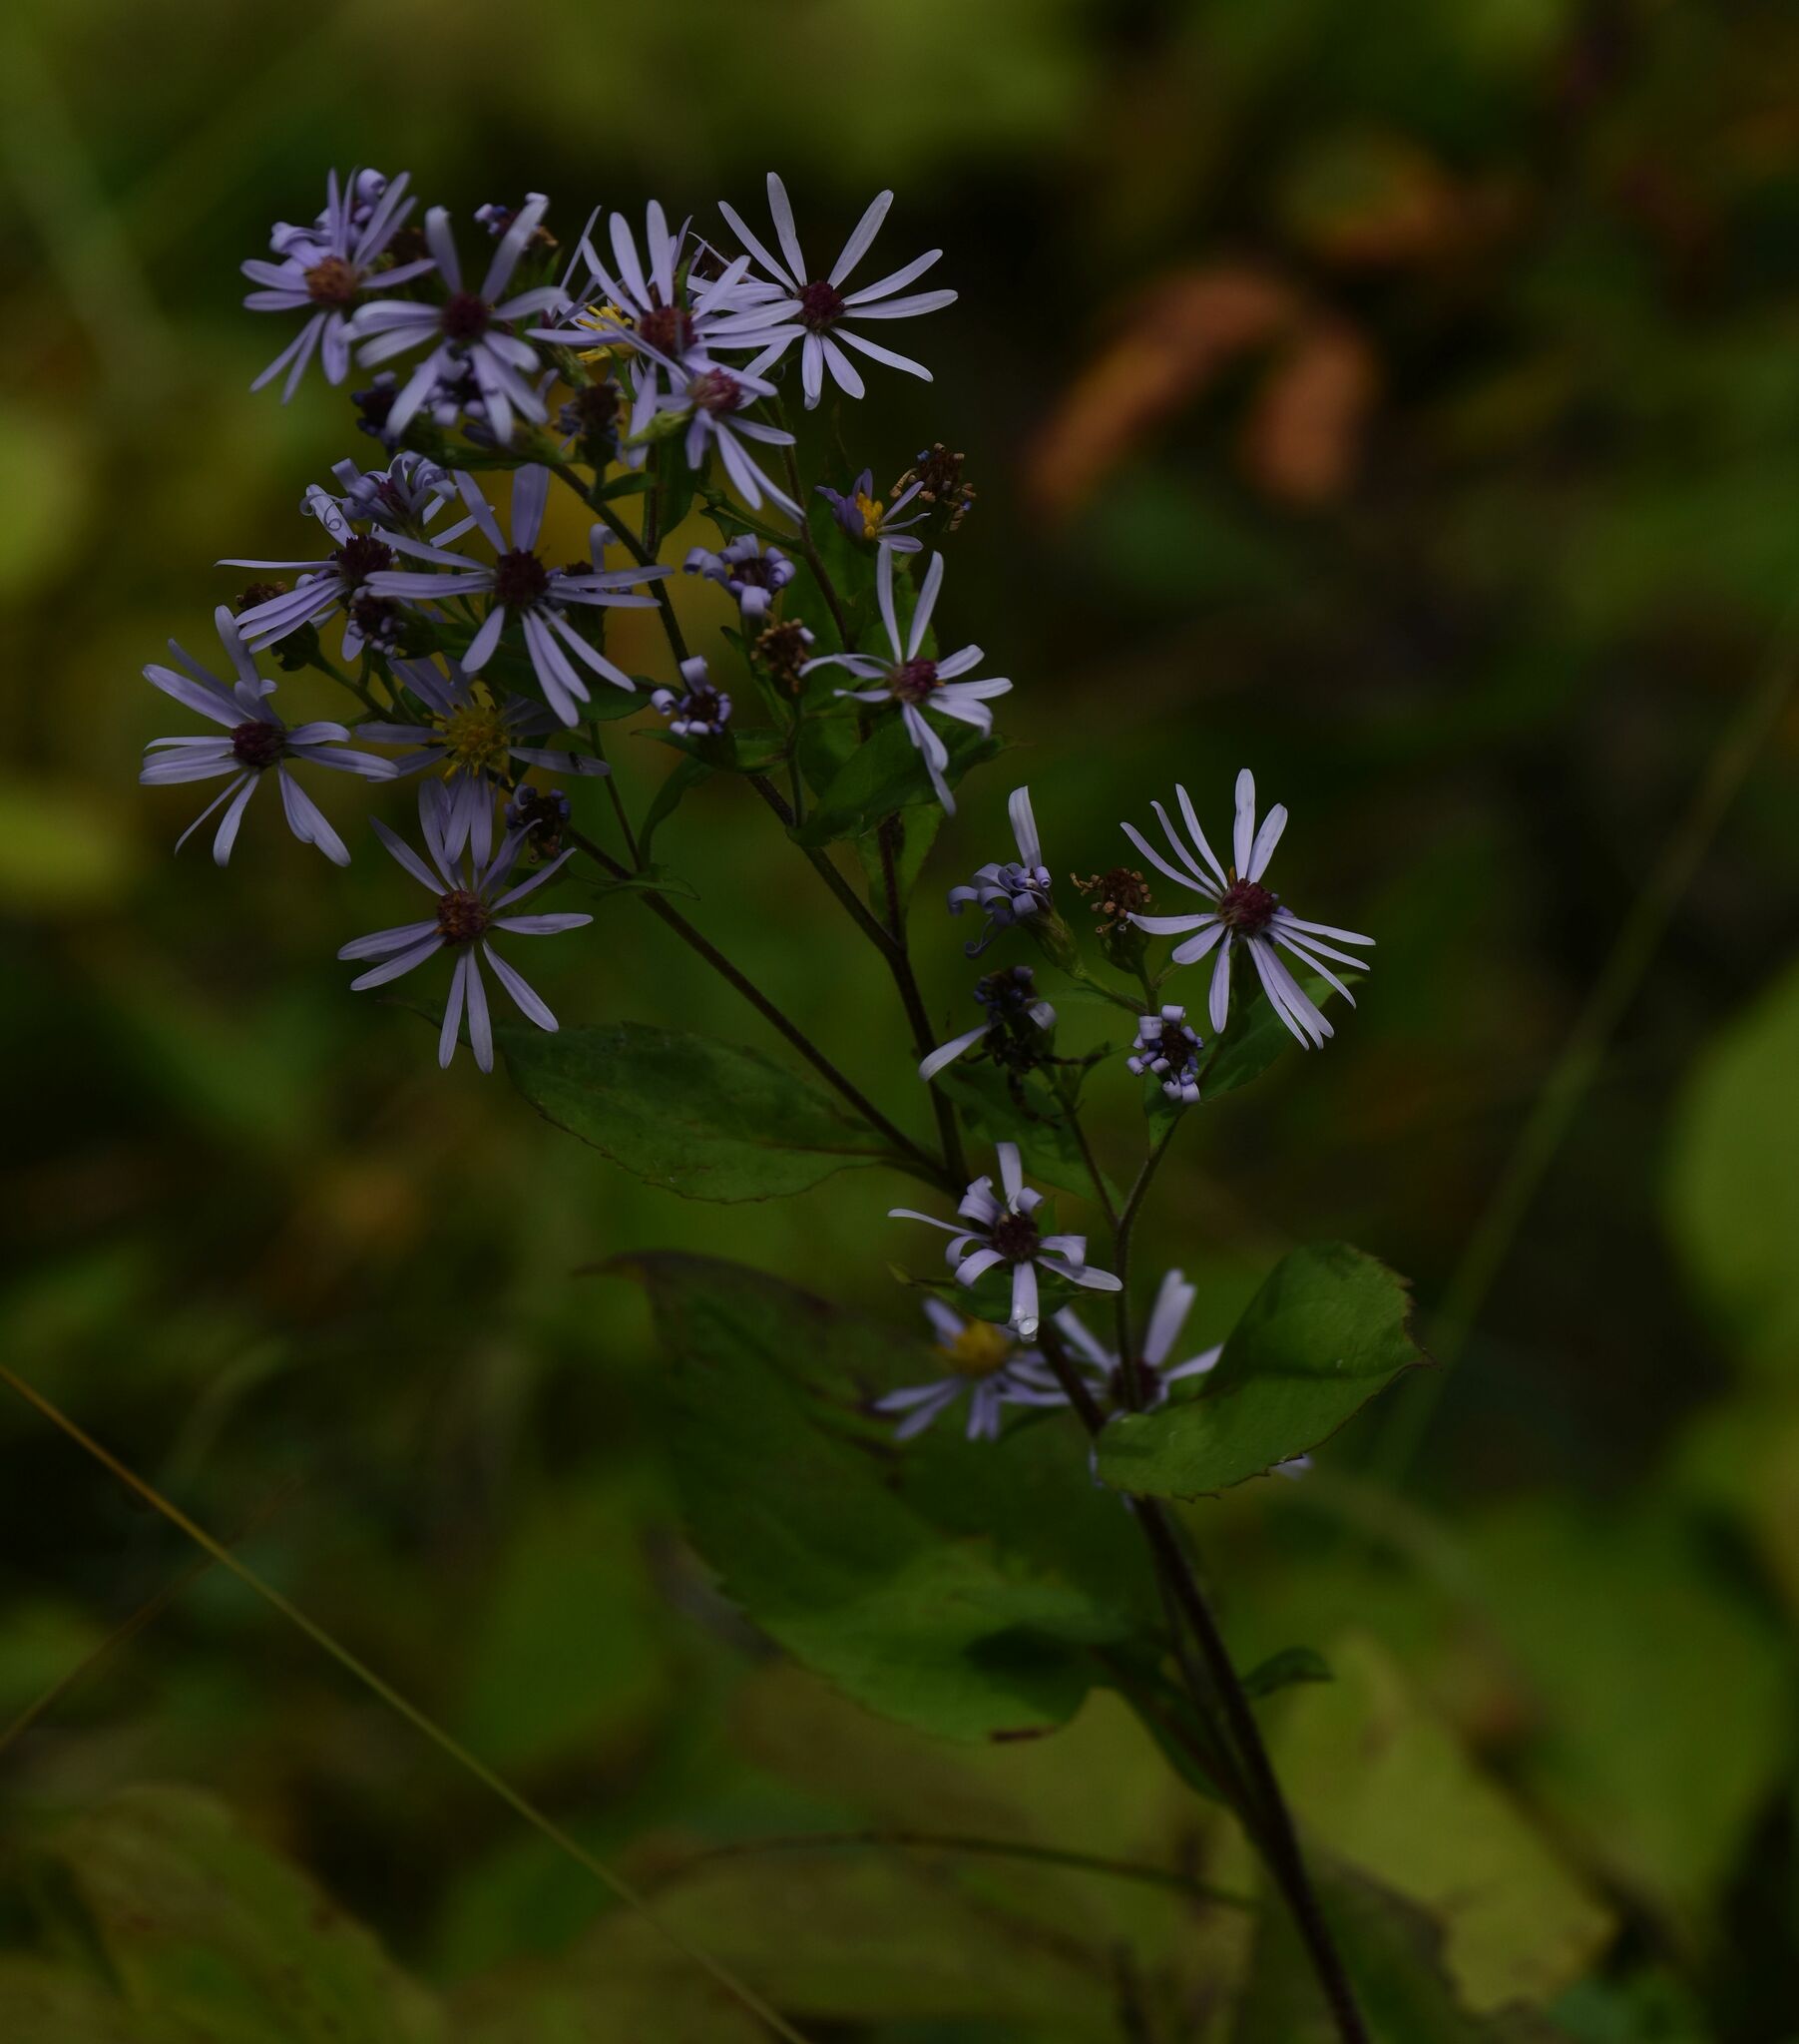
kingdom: Plantae
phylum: Tracheophyta
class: Magnoliopsida
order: Asterales
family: Asteraceae
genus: Symphyotrichum
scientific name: Symphyotrichum ciliolatum
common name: Fringed blue aster
